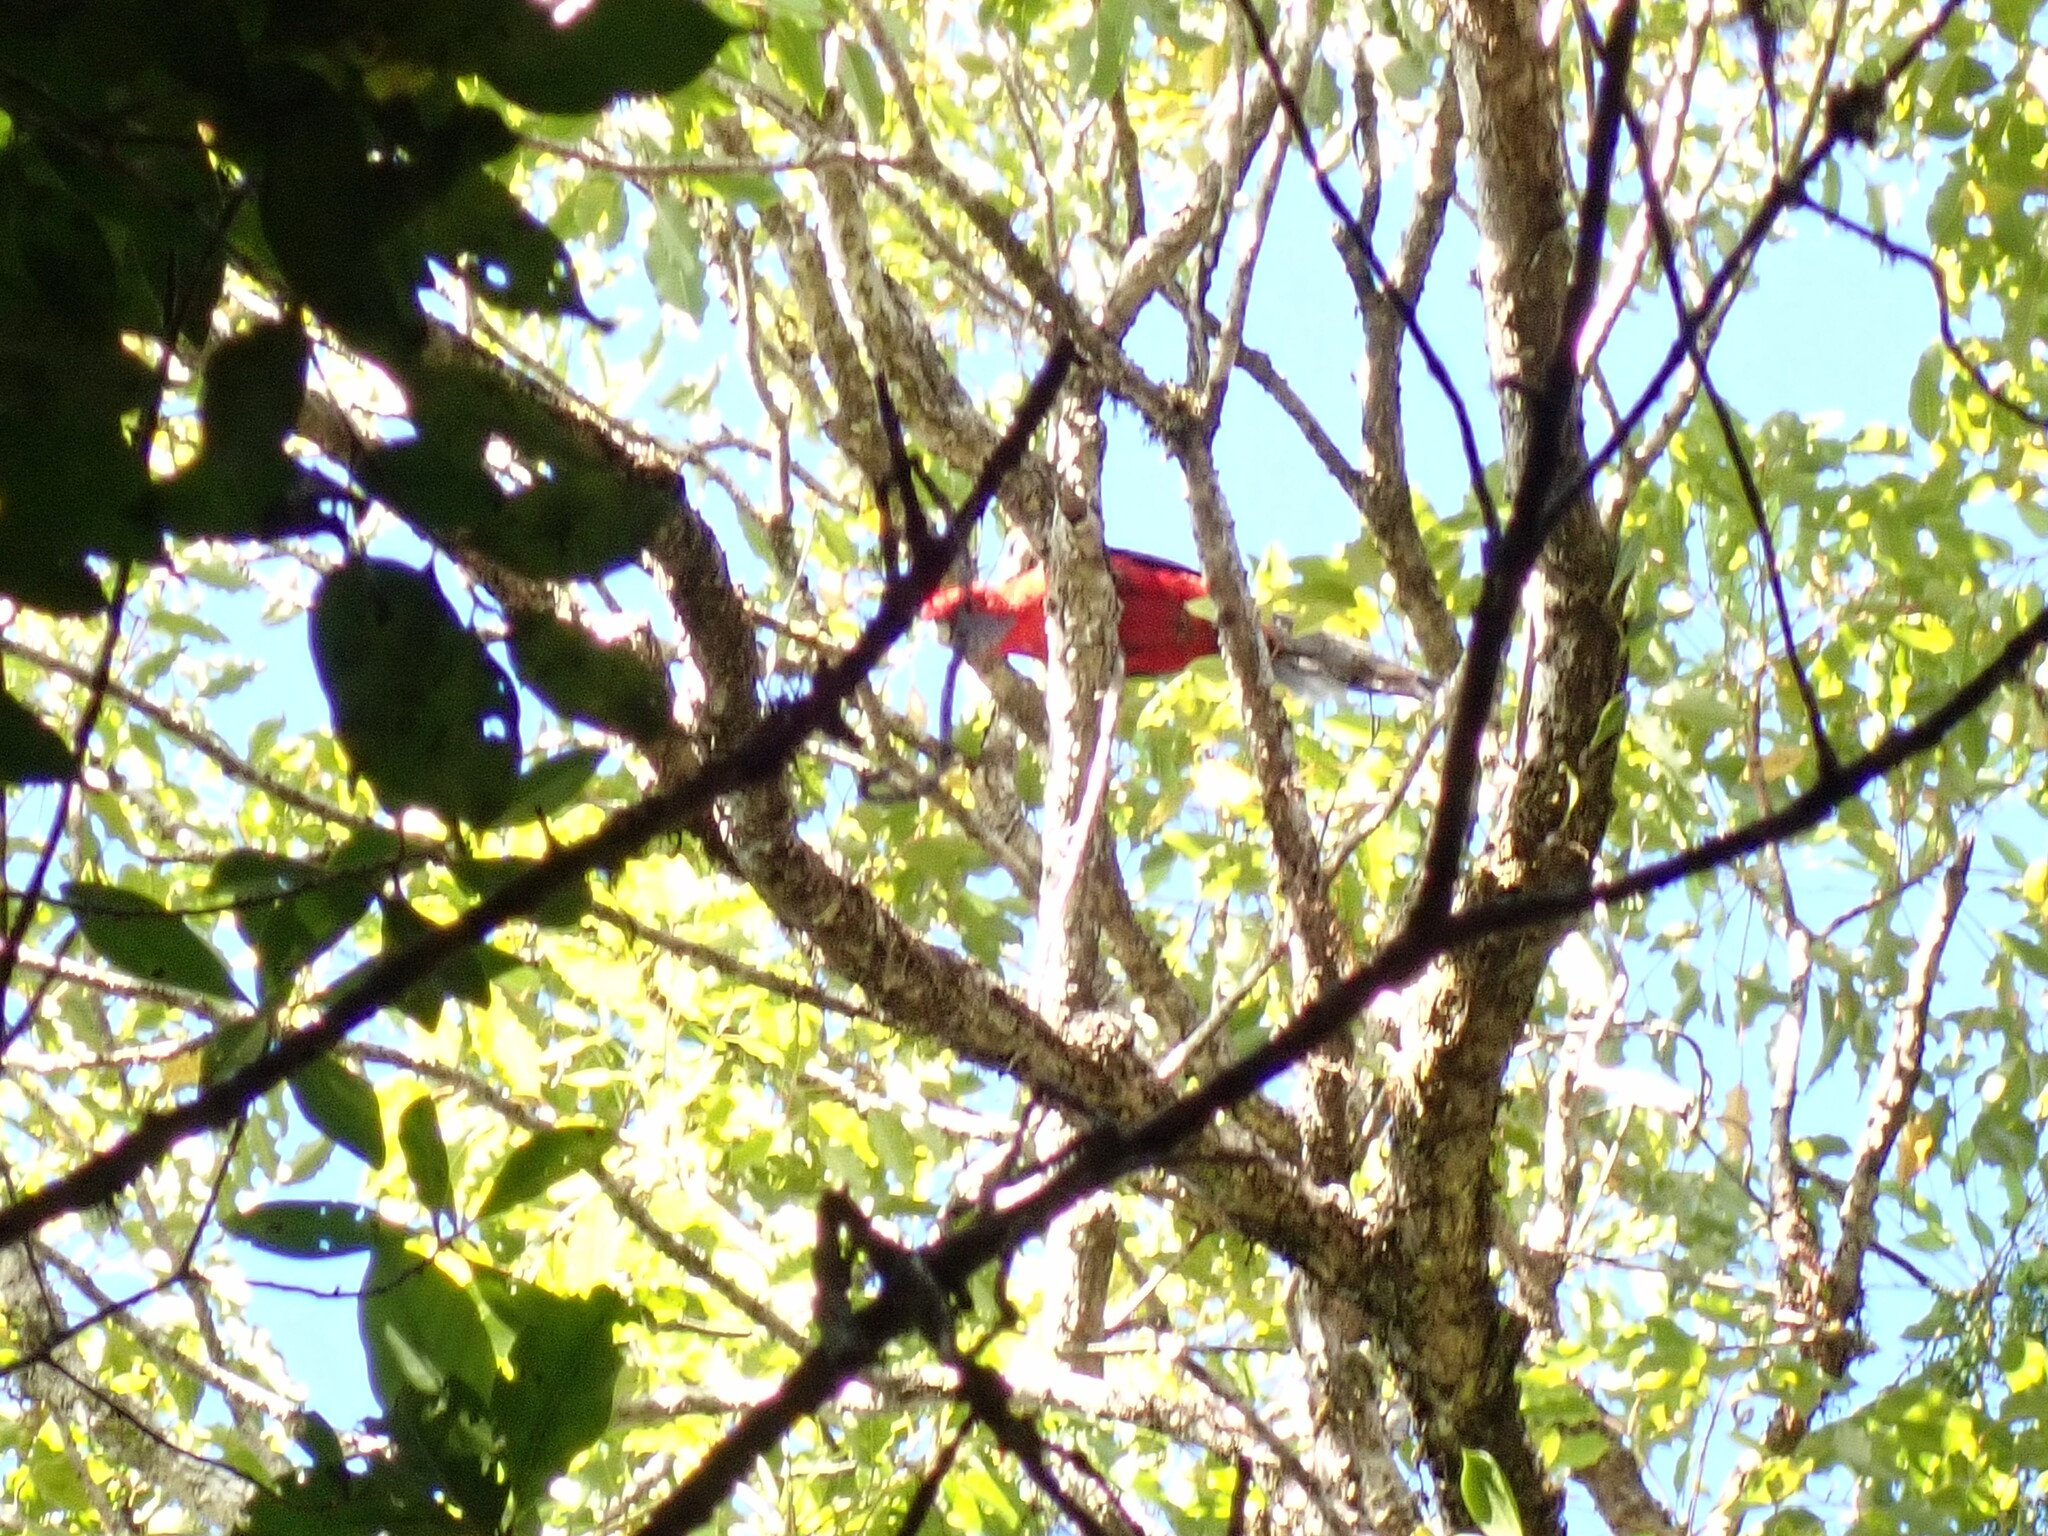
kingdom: Animalia
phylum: Chordata
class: Aves
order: Psittaciformes
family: Psittacidae
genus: Platycercus
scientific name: Platycercus elegans
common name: Crimson rosella
